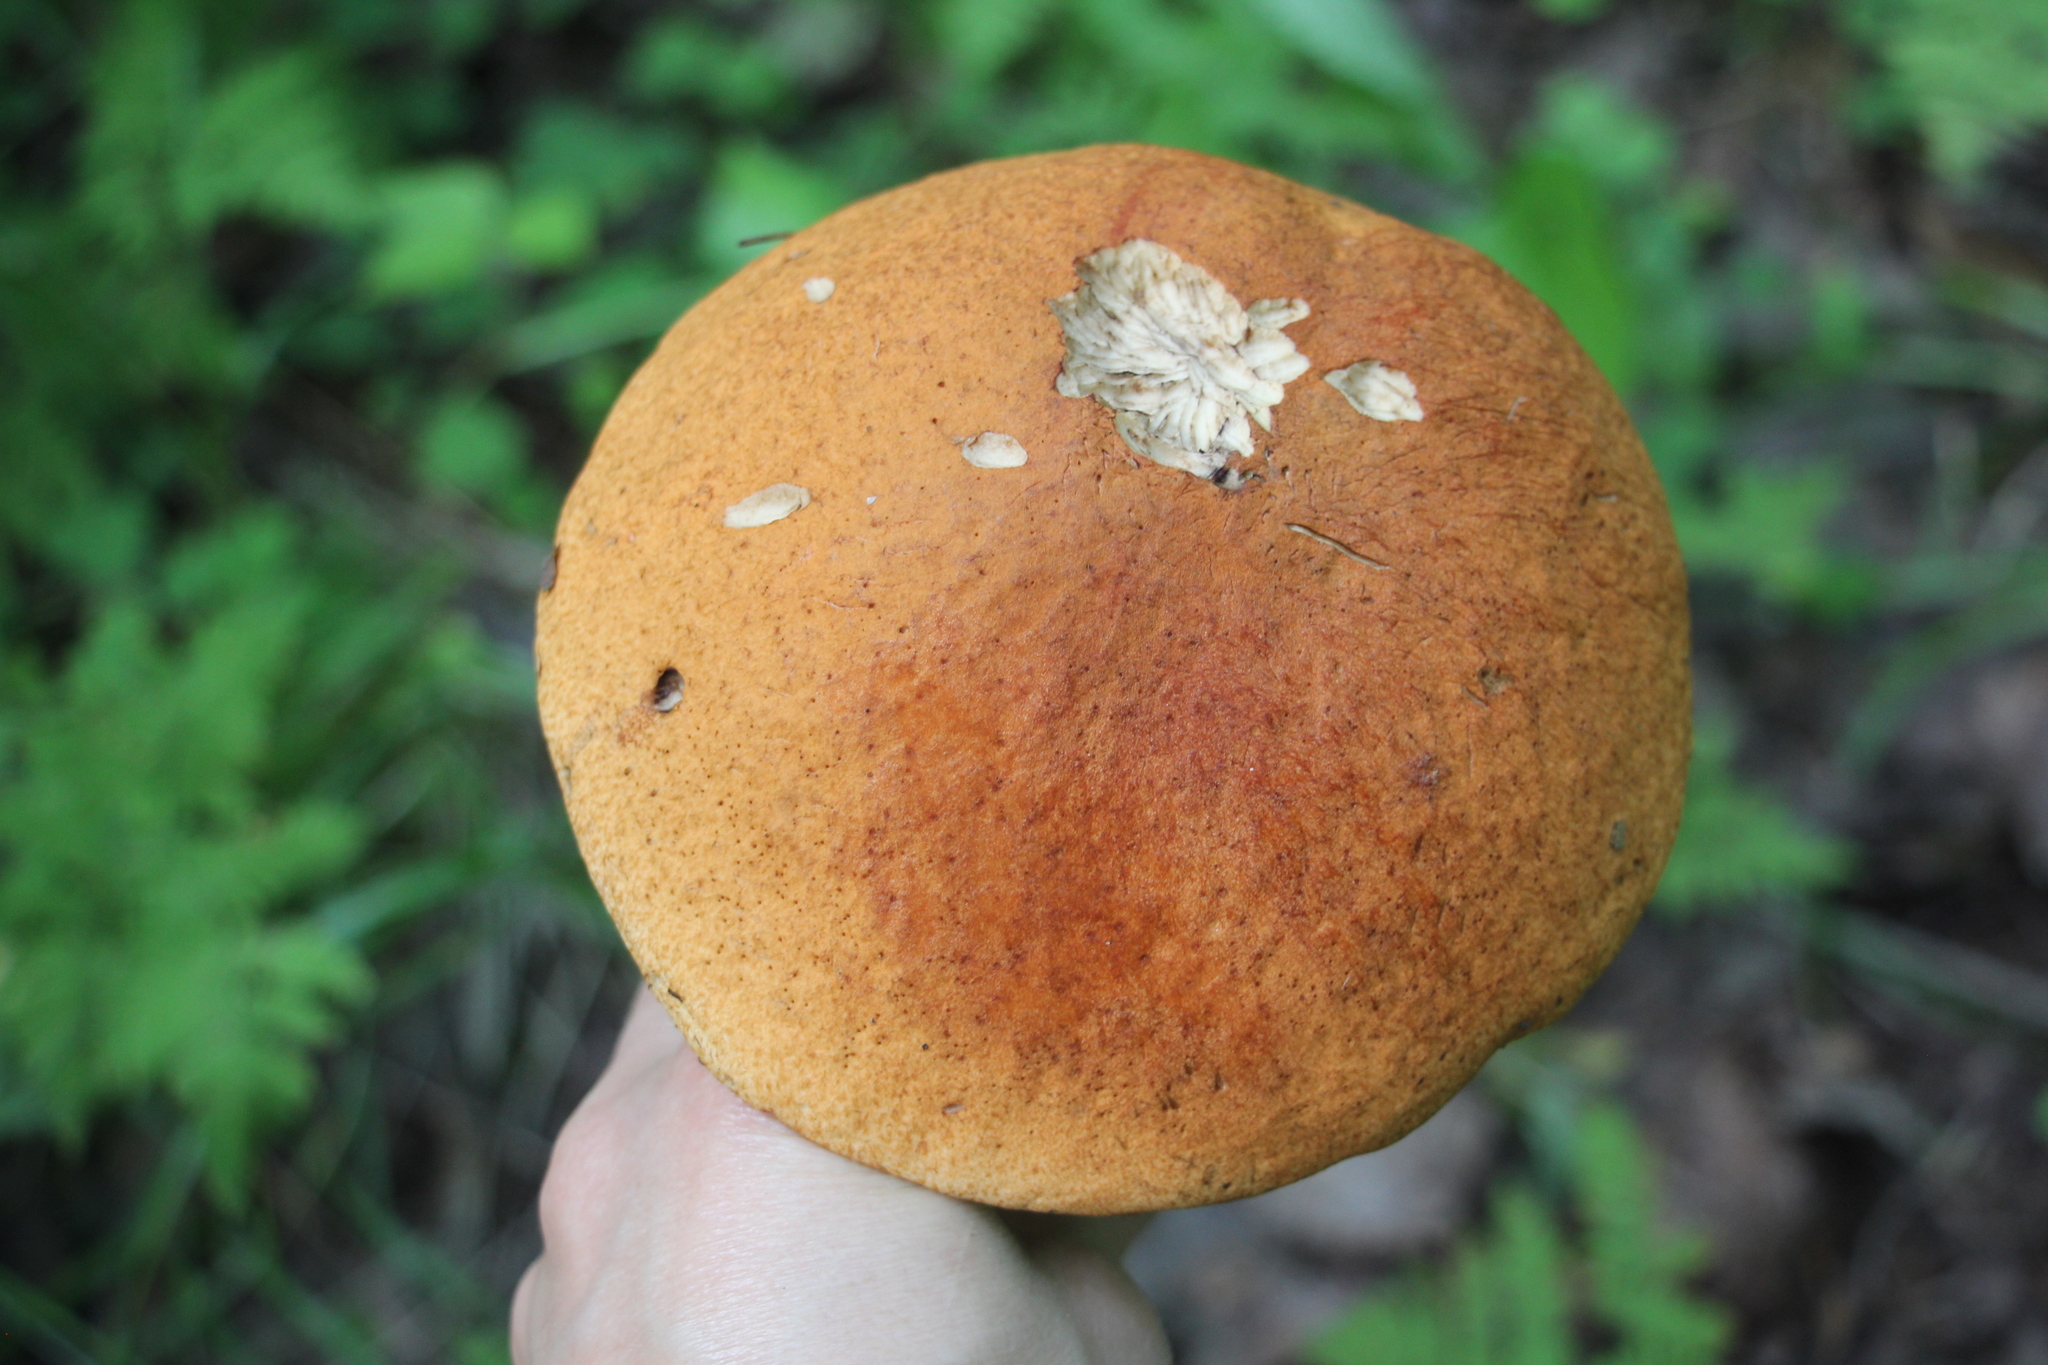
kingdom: Fungi
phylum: Basidiomycota
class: Agaricomycetes
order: Boletales
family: Boletaceae
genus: Leccinum
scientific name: Leccinum albostipitatum
